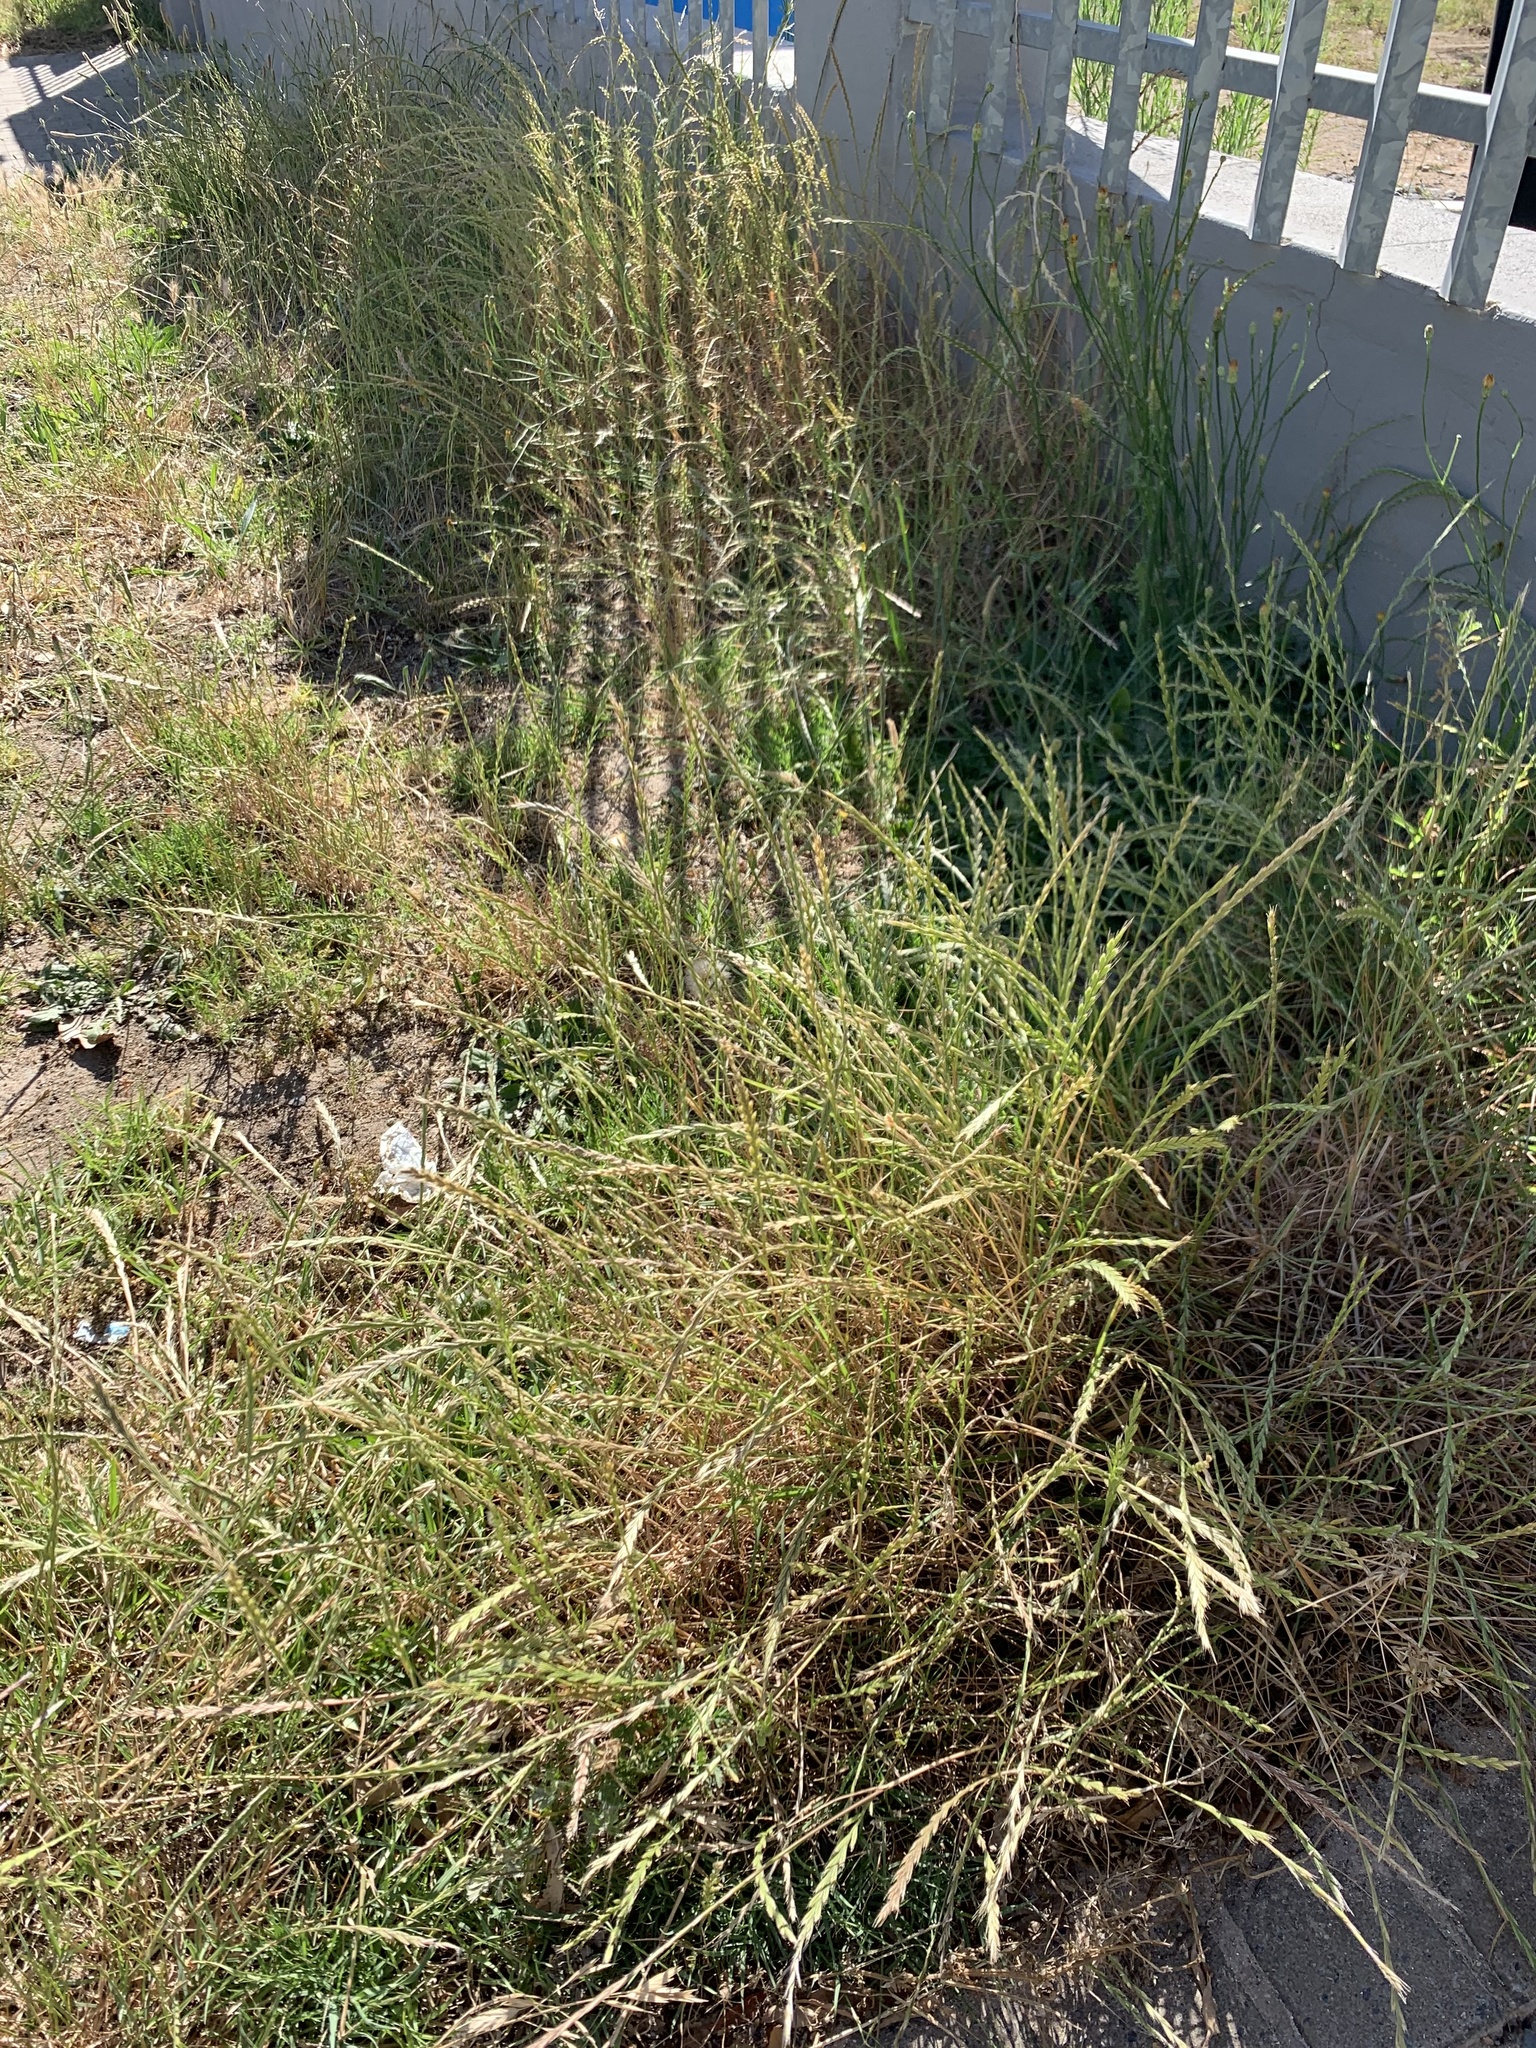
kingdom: Plantae
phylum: Tracheophyta
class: Liliopsida
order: Poales
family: Poaceae
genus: Lolium
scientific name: Lolium multiflorum
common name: Annual ryegrass
